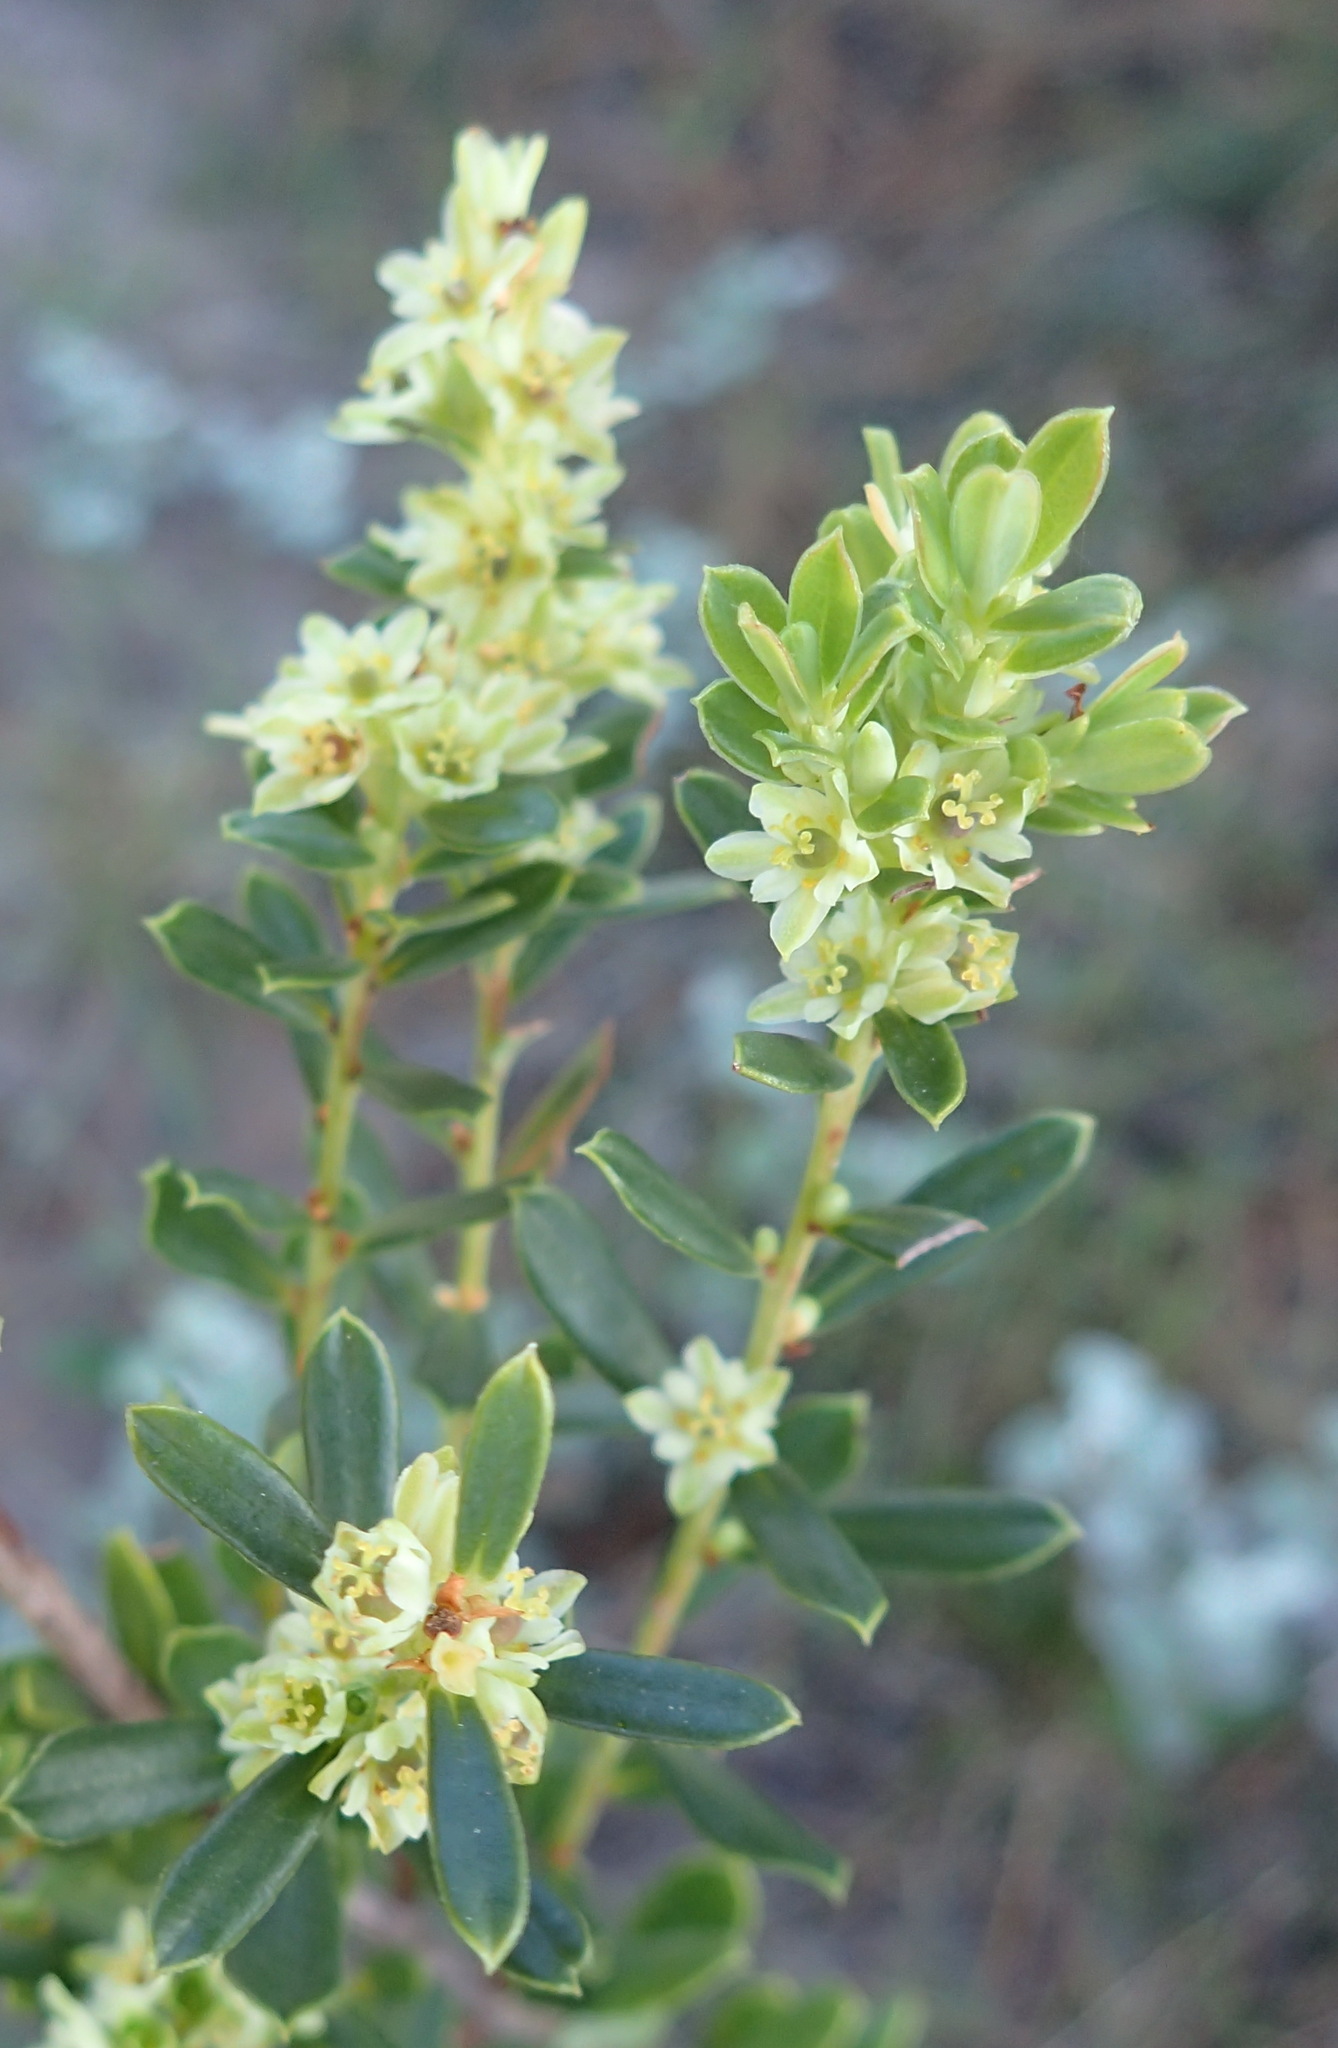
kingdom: Plantae
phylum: Tracheophyta
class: Magnoliopsida
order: Malpighiales
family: Peraceae
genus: Clutia
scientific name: Clutia daphnoides
